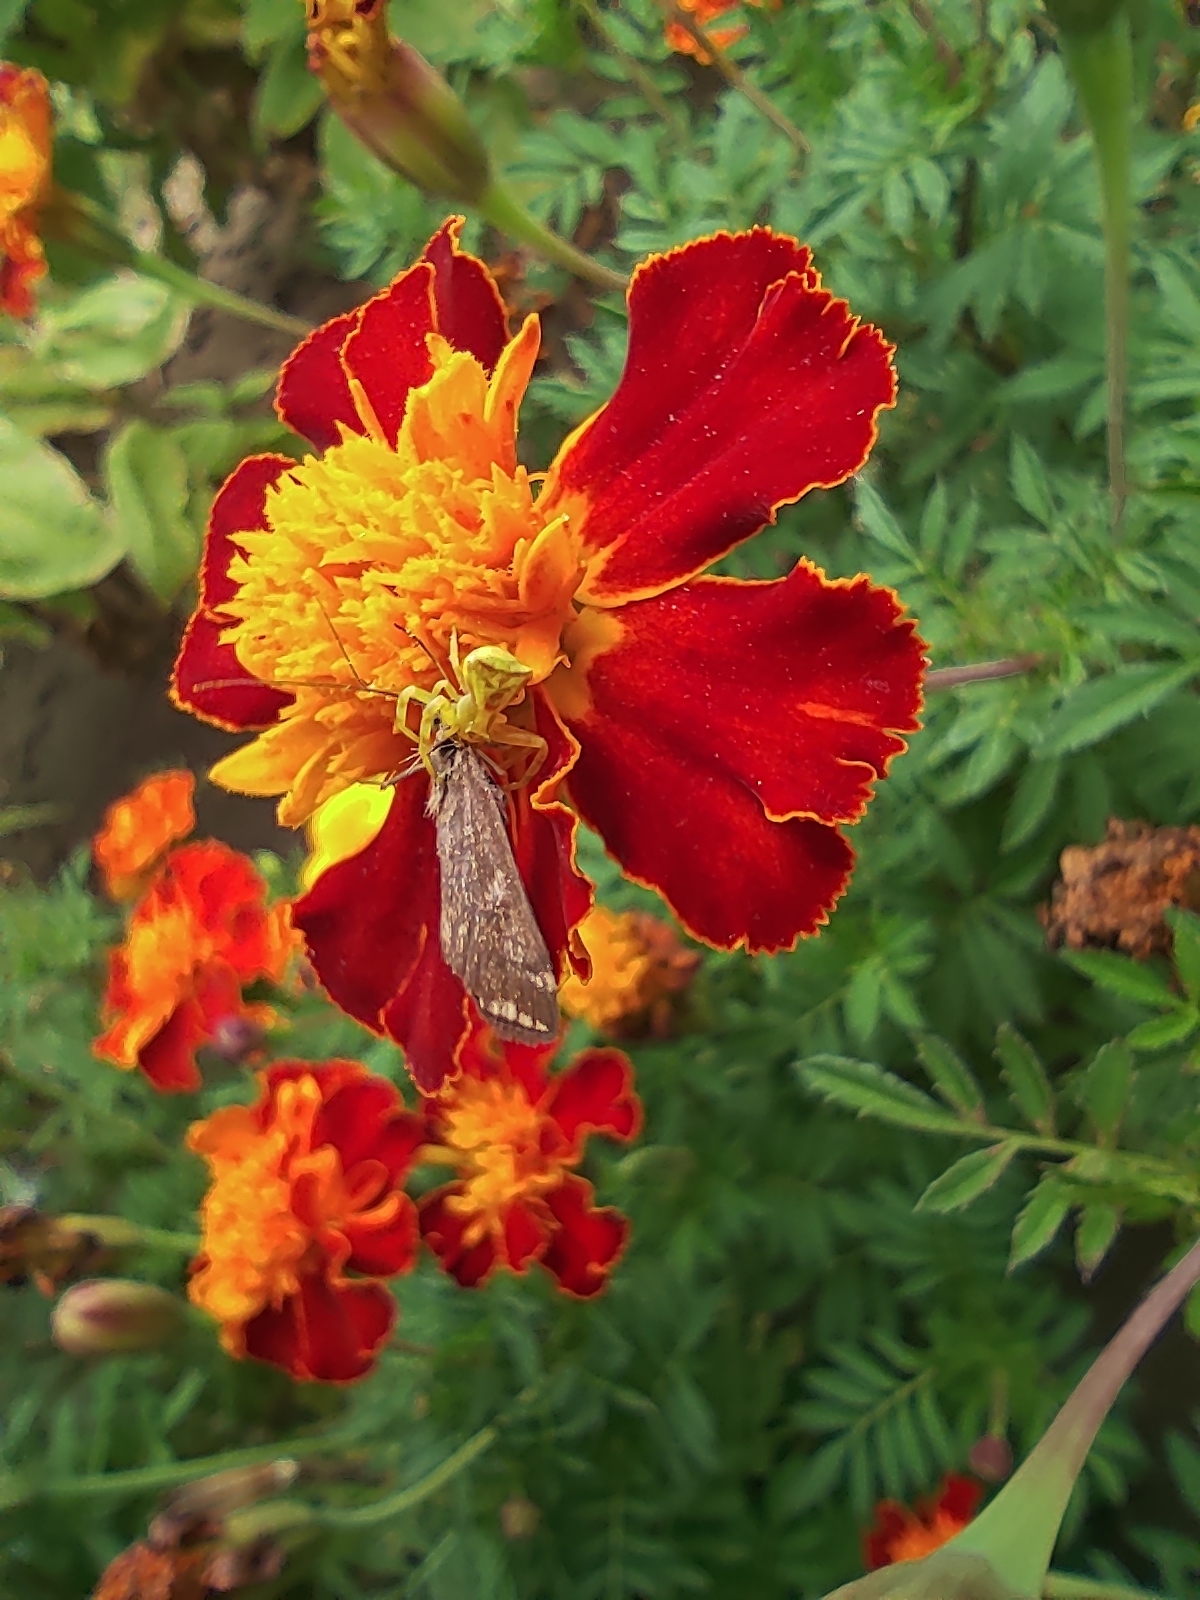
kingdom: Animalia
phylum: Arthropoda
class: Arachnida
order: Araneae
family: Thomisidae
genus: Thomisus
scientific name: Thomisus onustus
